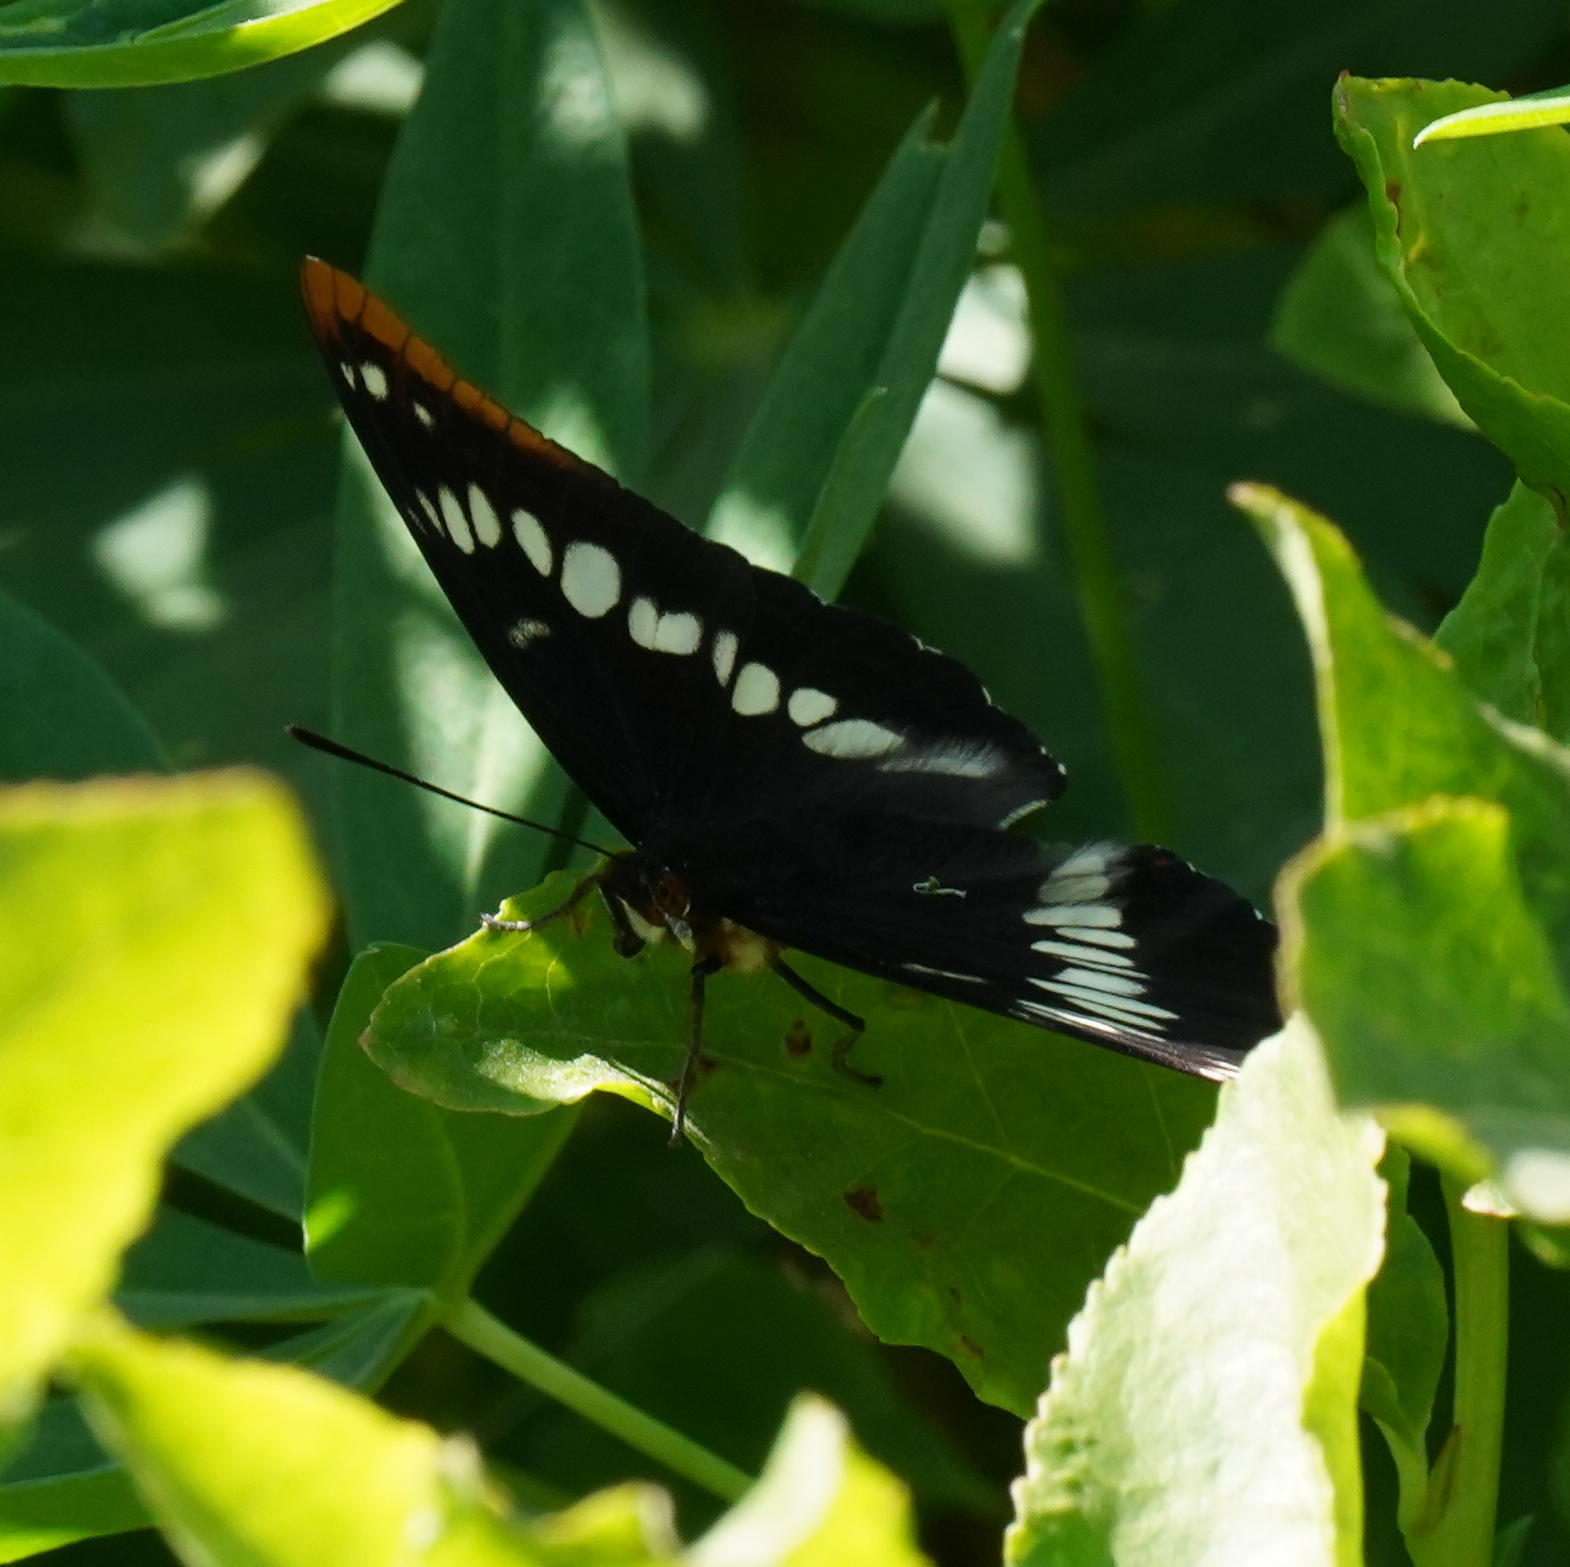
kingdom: Animalia
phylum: Arthropoda
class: Insecta
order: Lepidoptera
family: Nymphalidae
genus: Limenitis
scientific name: Limenitis lorquini
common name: Lorquin's admiral
